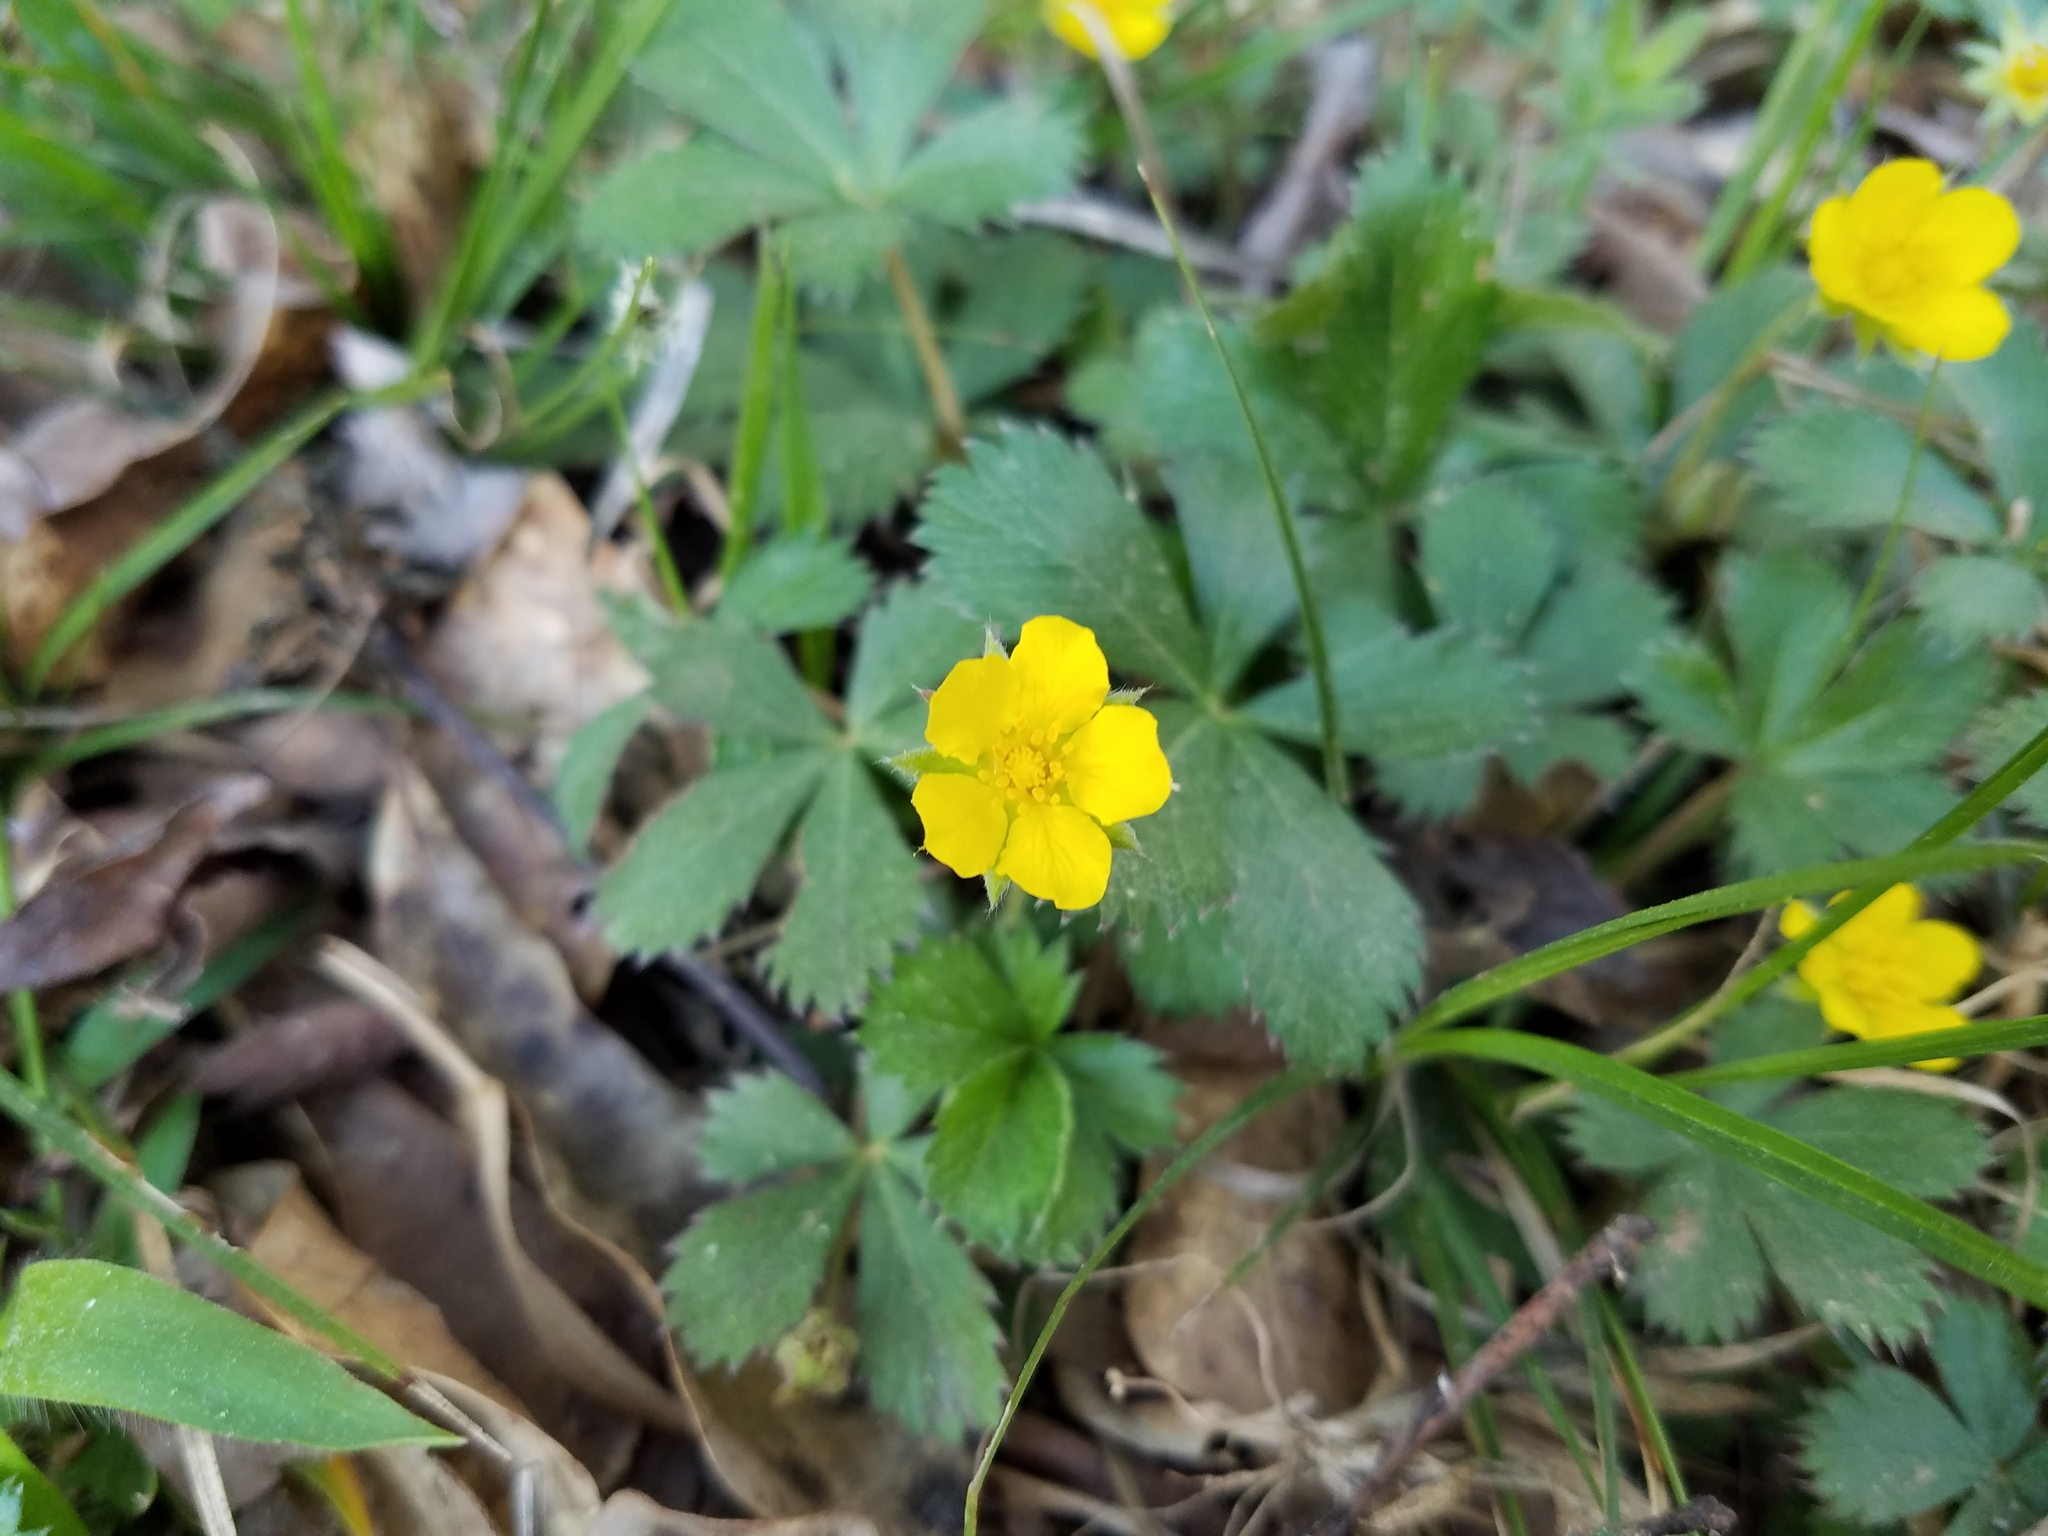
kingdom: Plantae
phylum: Tracheophyta
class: Magnoliopsida
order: Rosales
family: Rosaceae
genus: Potentilla
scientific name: Potentilla canadensis
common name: Canada cinquefoil
